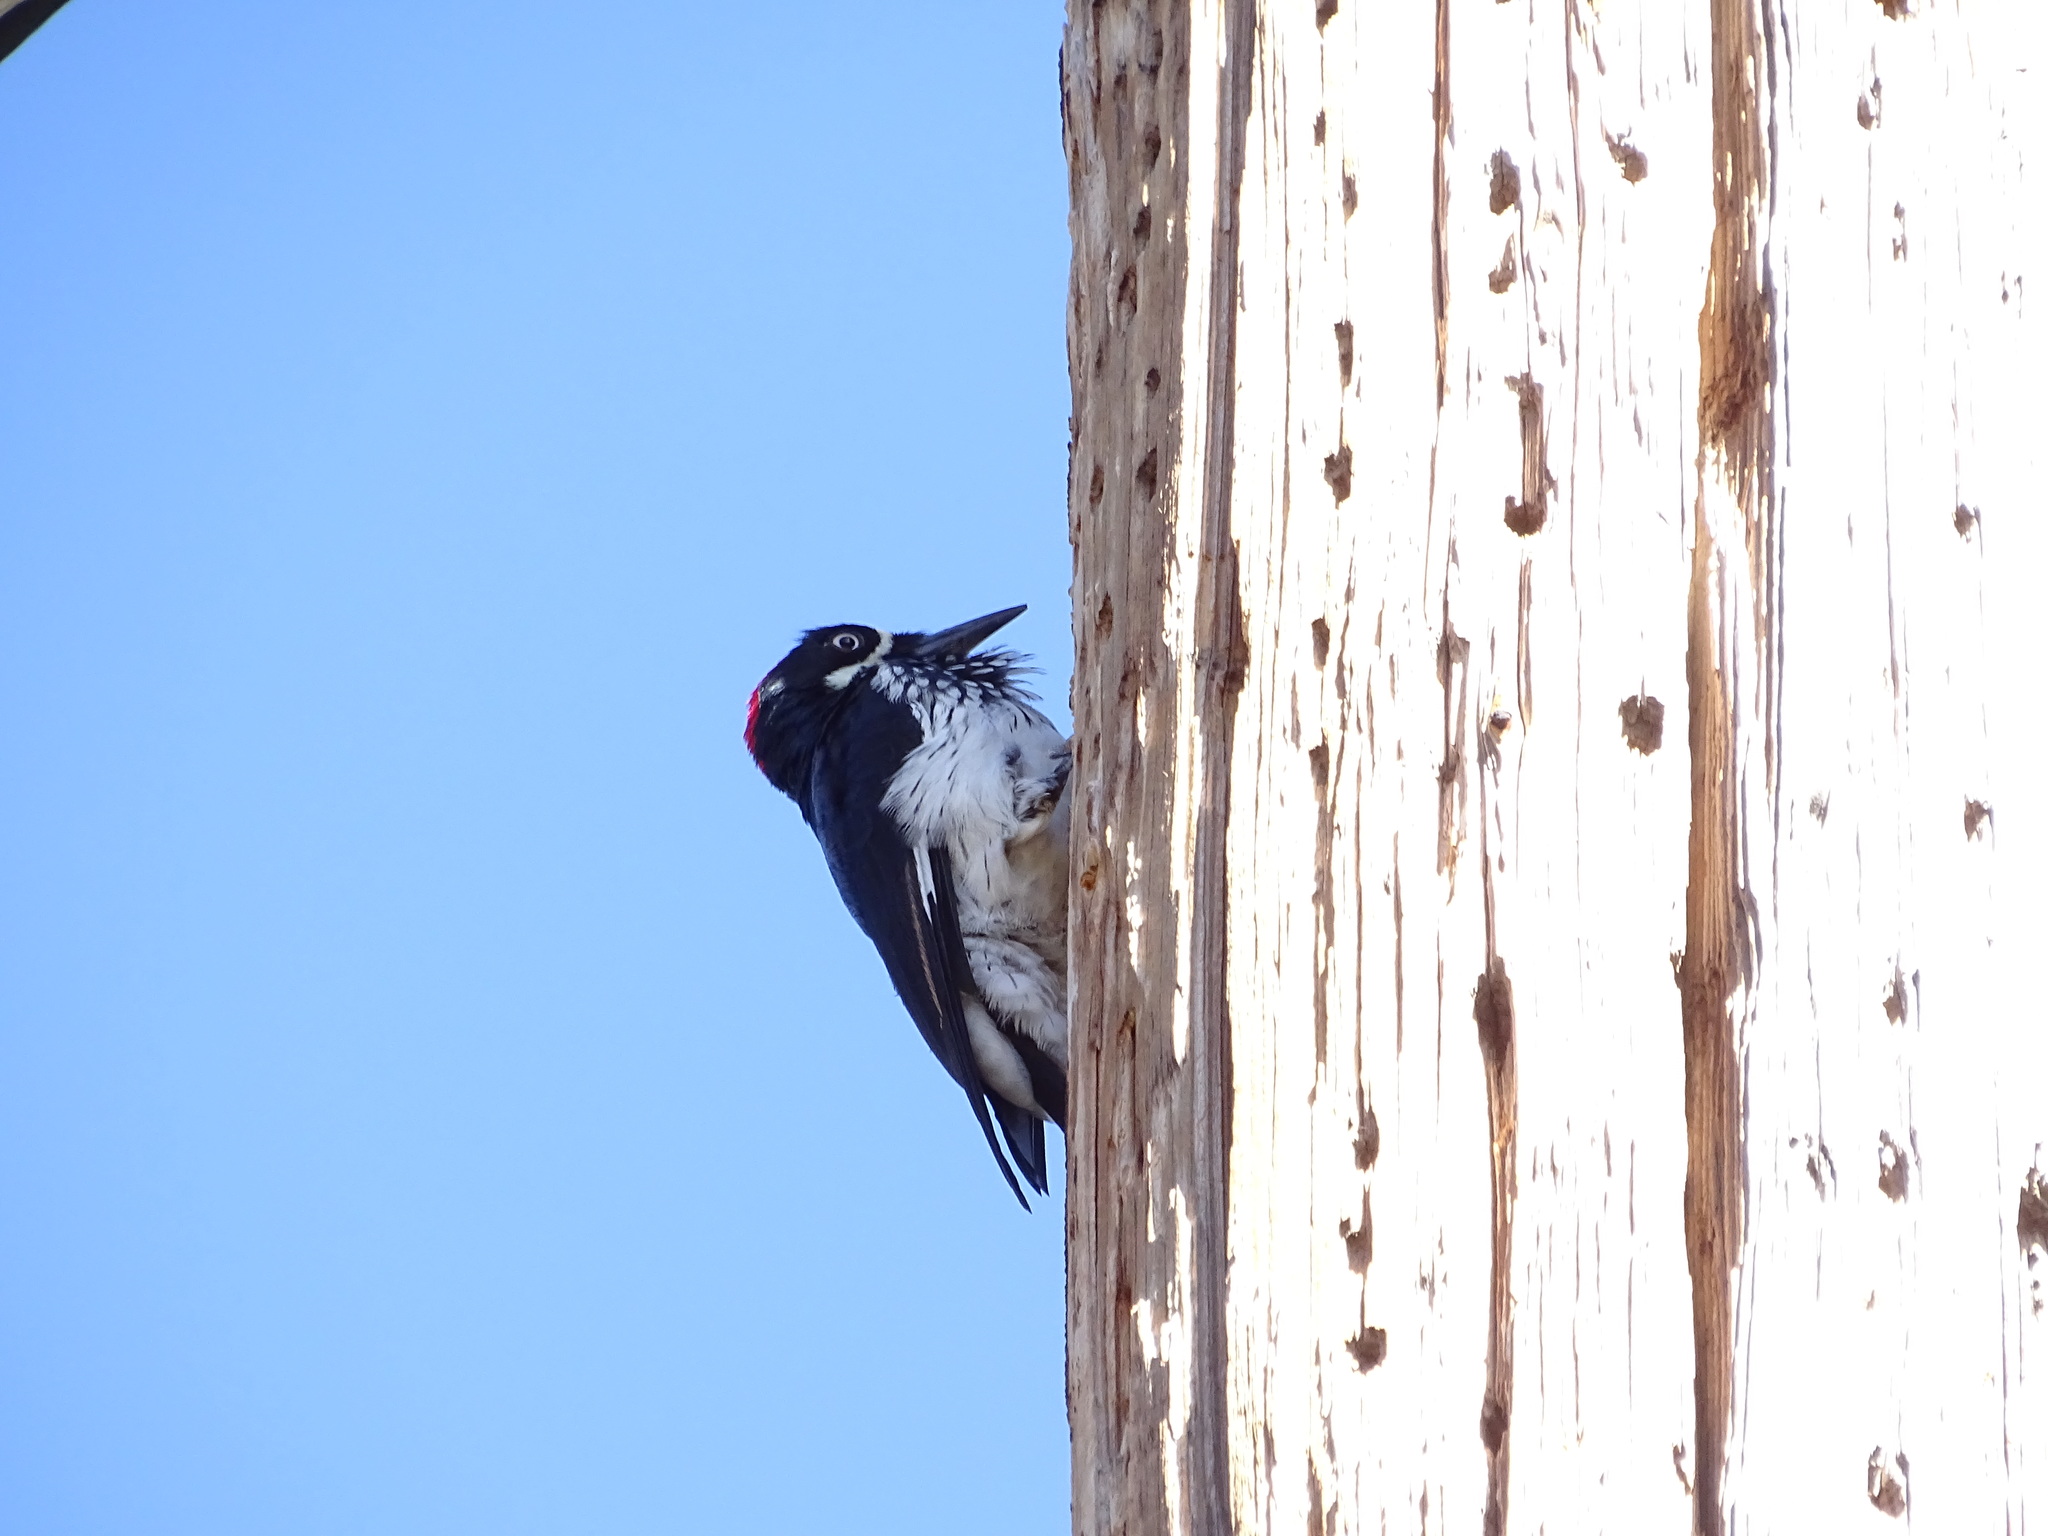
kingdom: Animalia
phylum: Chordata
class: Aves
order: Piciformes
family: Picidae
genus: Melanerpes
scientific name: Melanerpes formicivorus
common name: Acorn woodpecker
